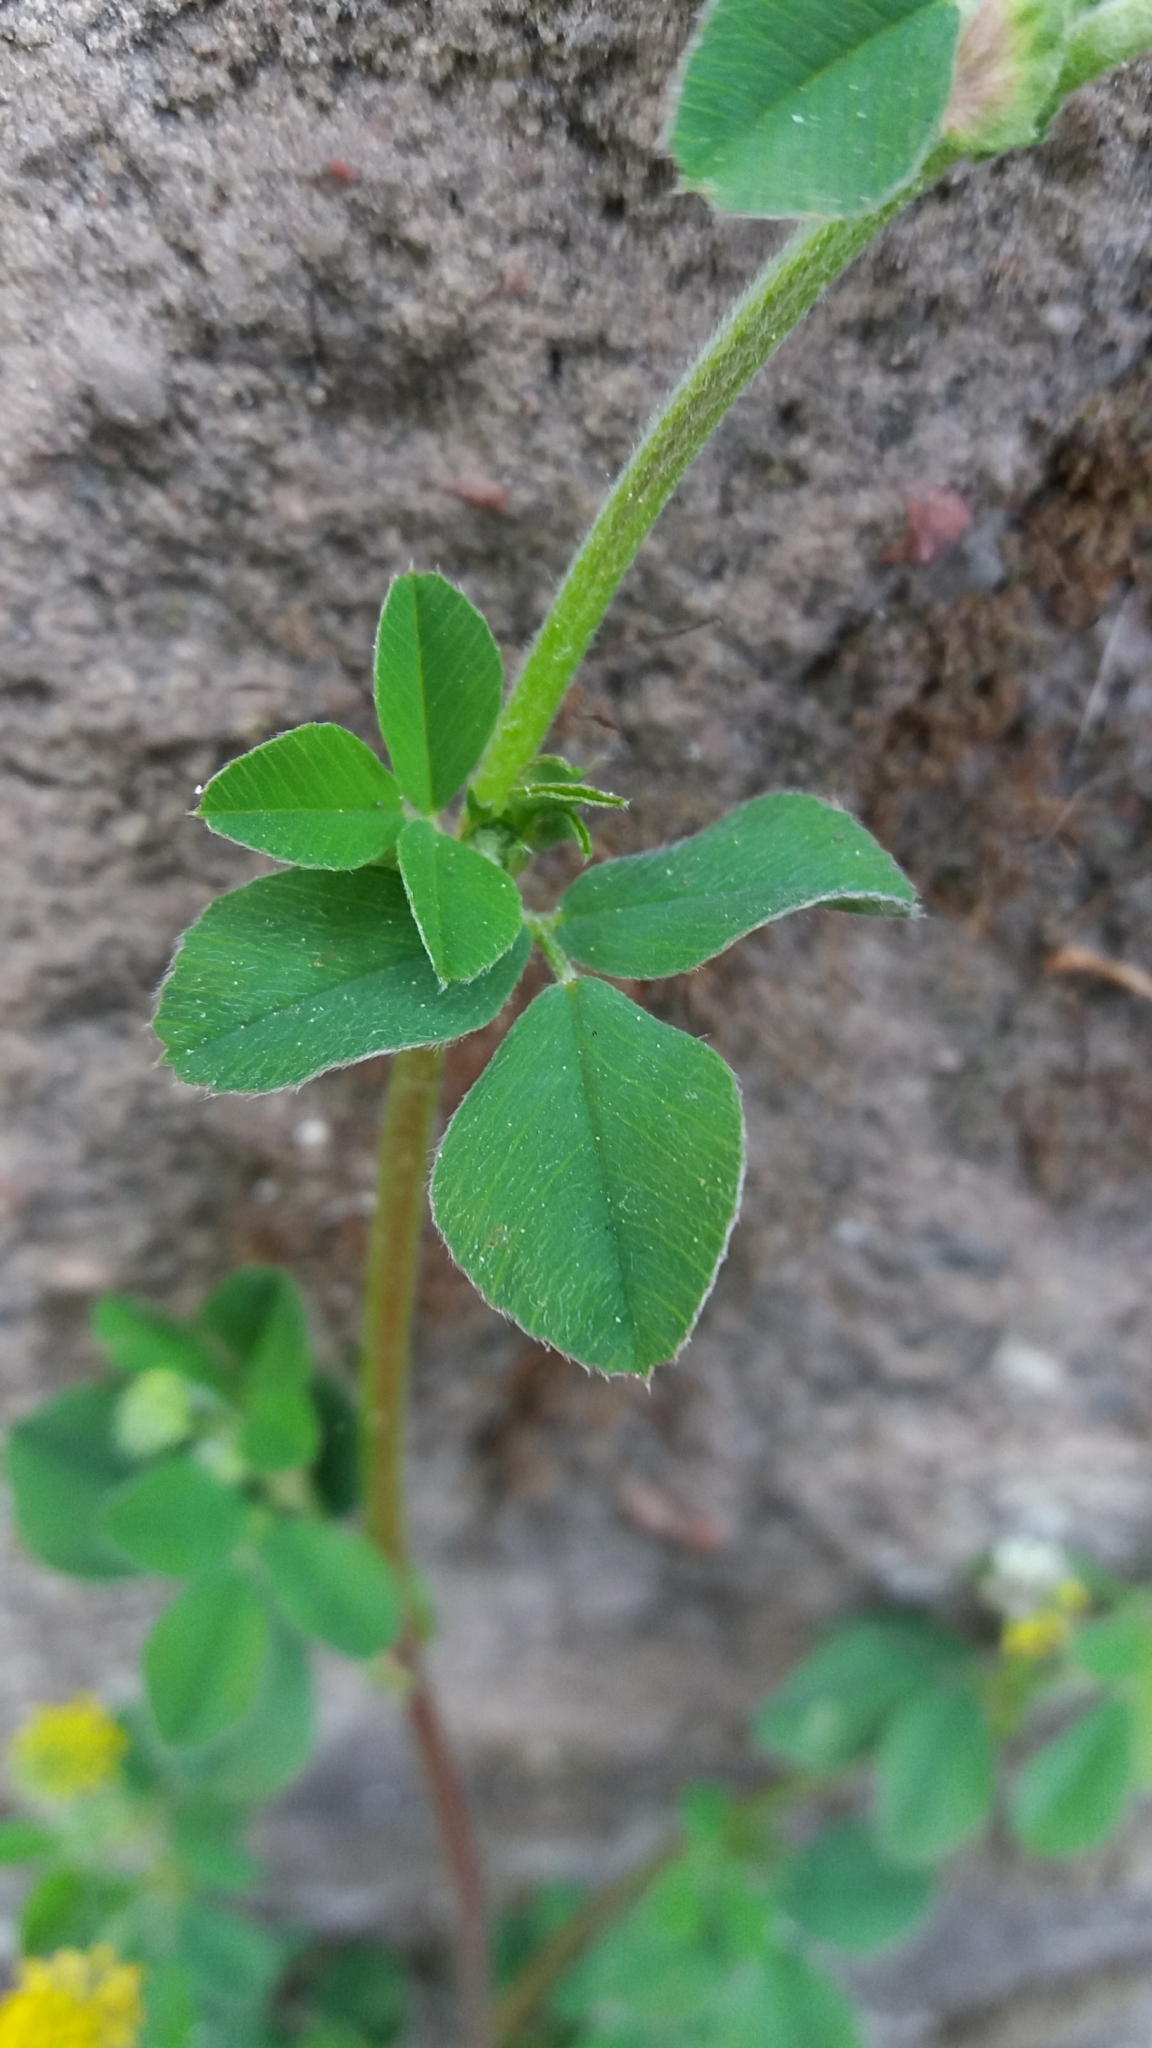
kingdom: Plantae
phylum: Tracheophyta
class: Magnoliopsida
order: Fabales
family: Fabaceae
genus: Medicago
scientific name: Medicago lupulina
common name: Black medick
